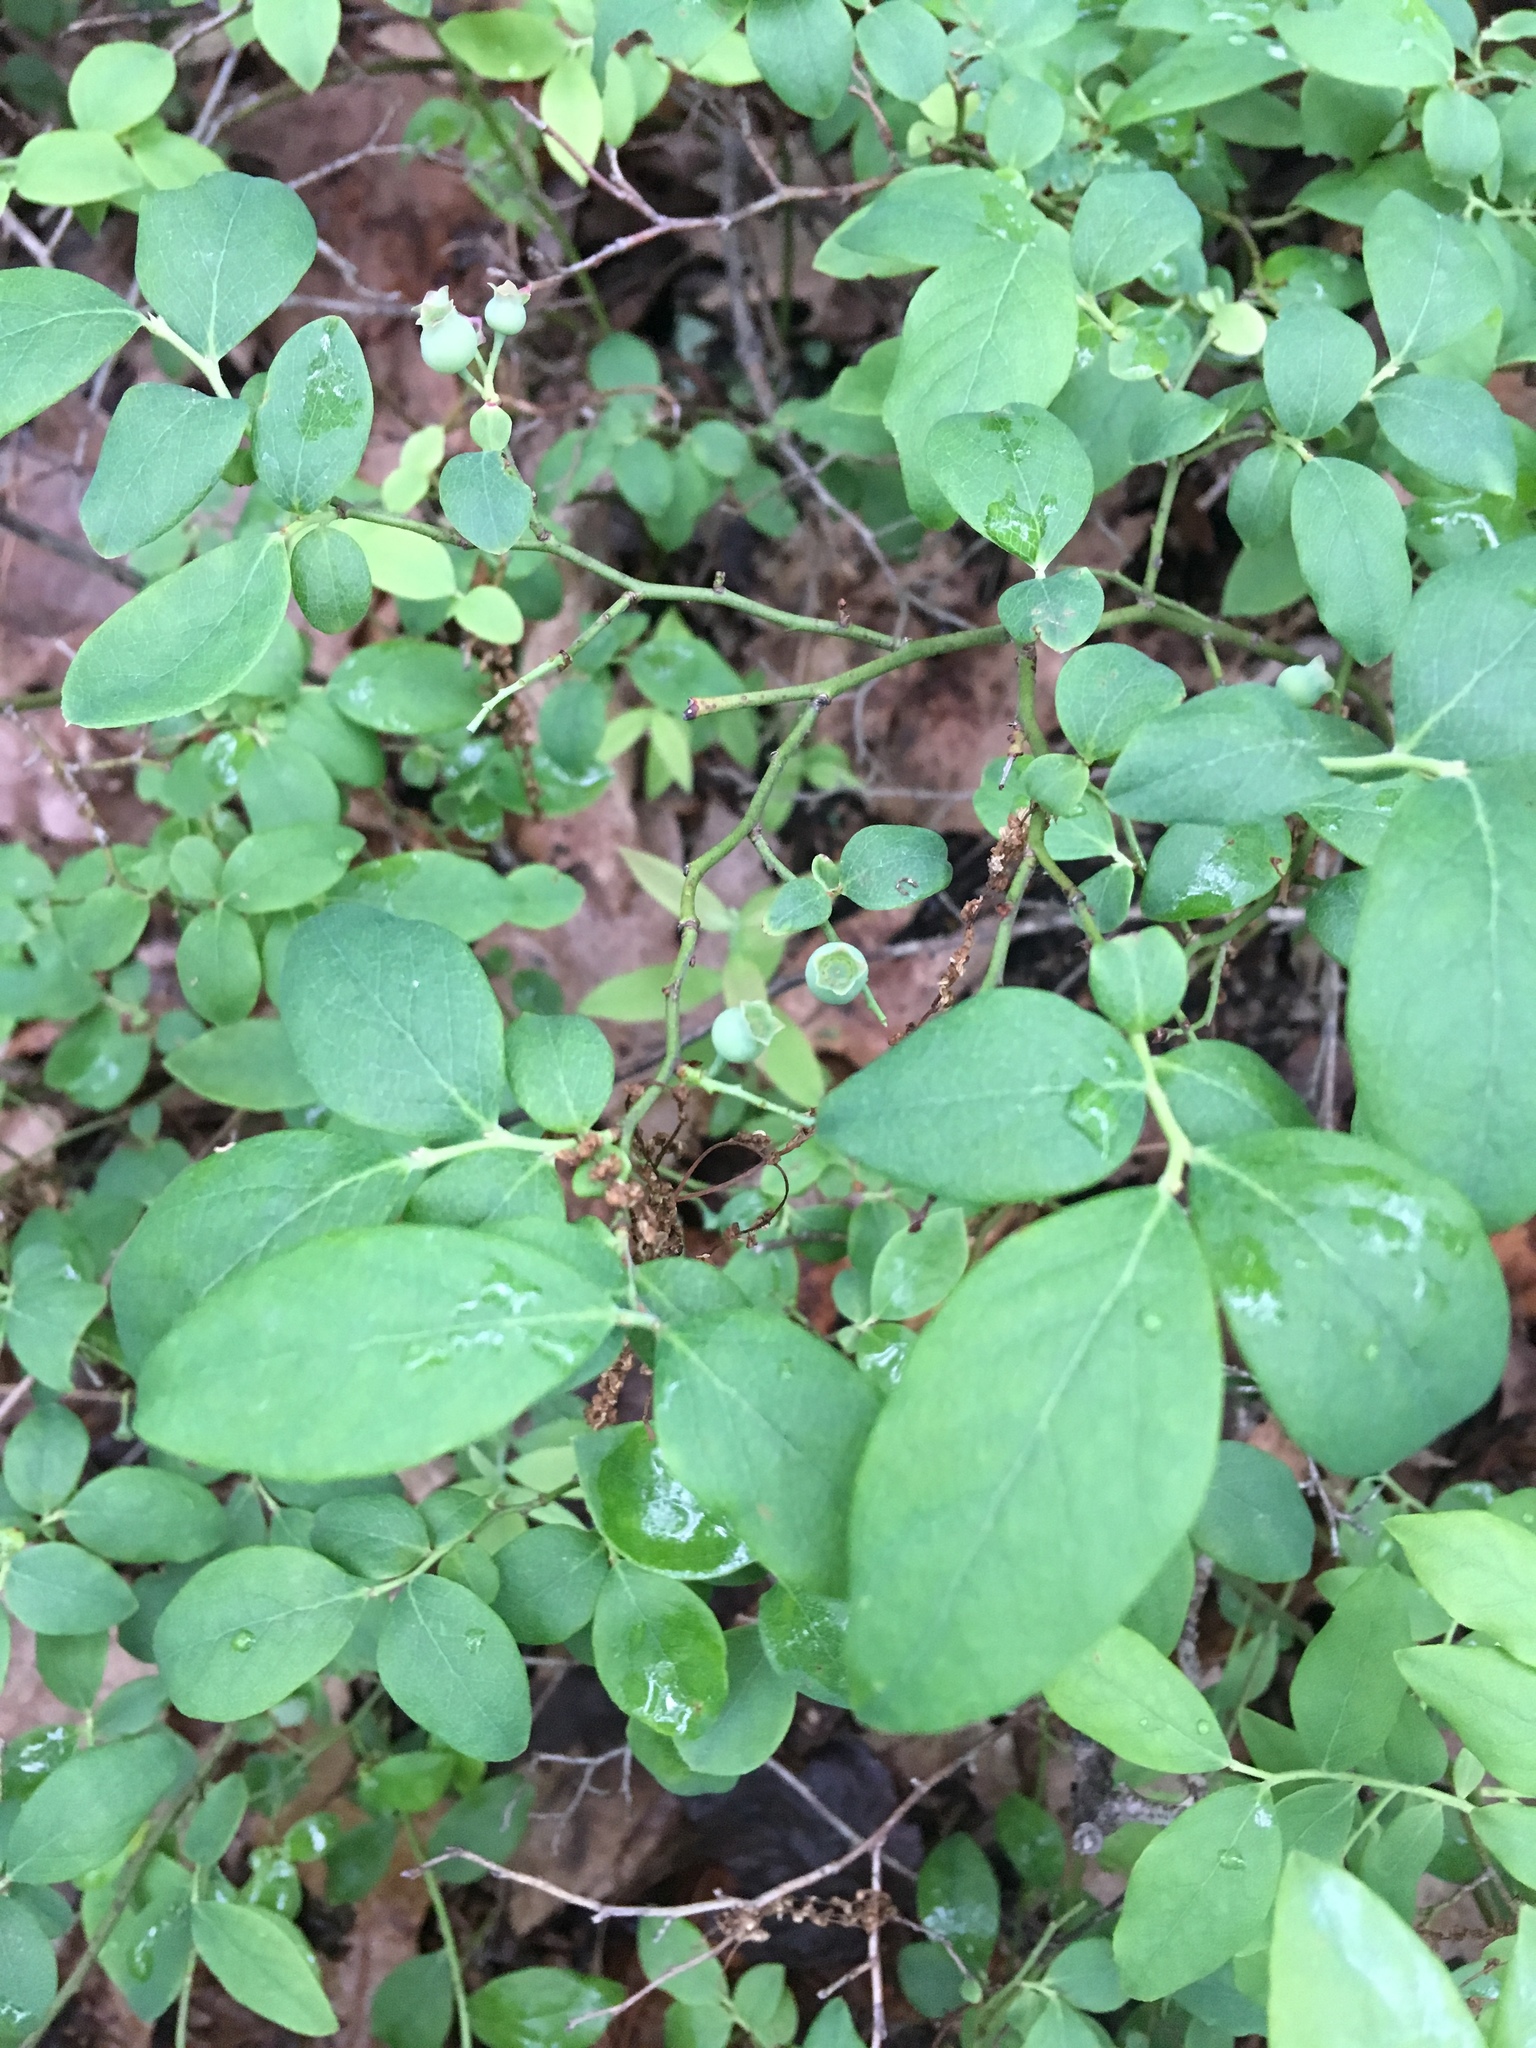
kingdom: Plantae
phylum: Tracheophyta
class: Magnoliopsida
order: Ericales
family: Ericaceae
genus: Vaccinium
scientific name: Vaccinium pallidum
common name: Blue ridge blueberry
